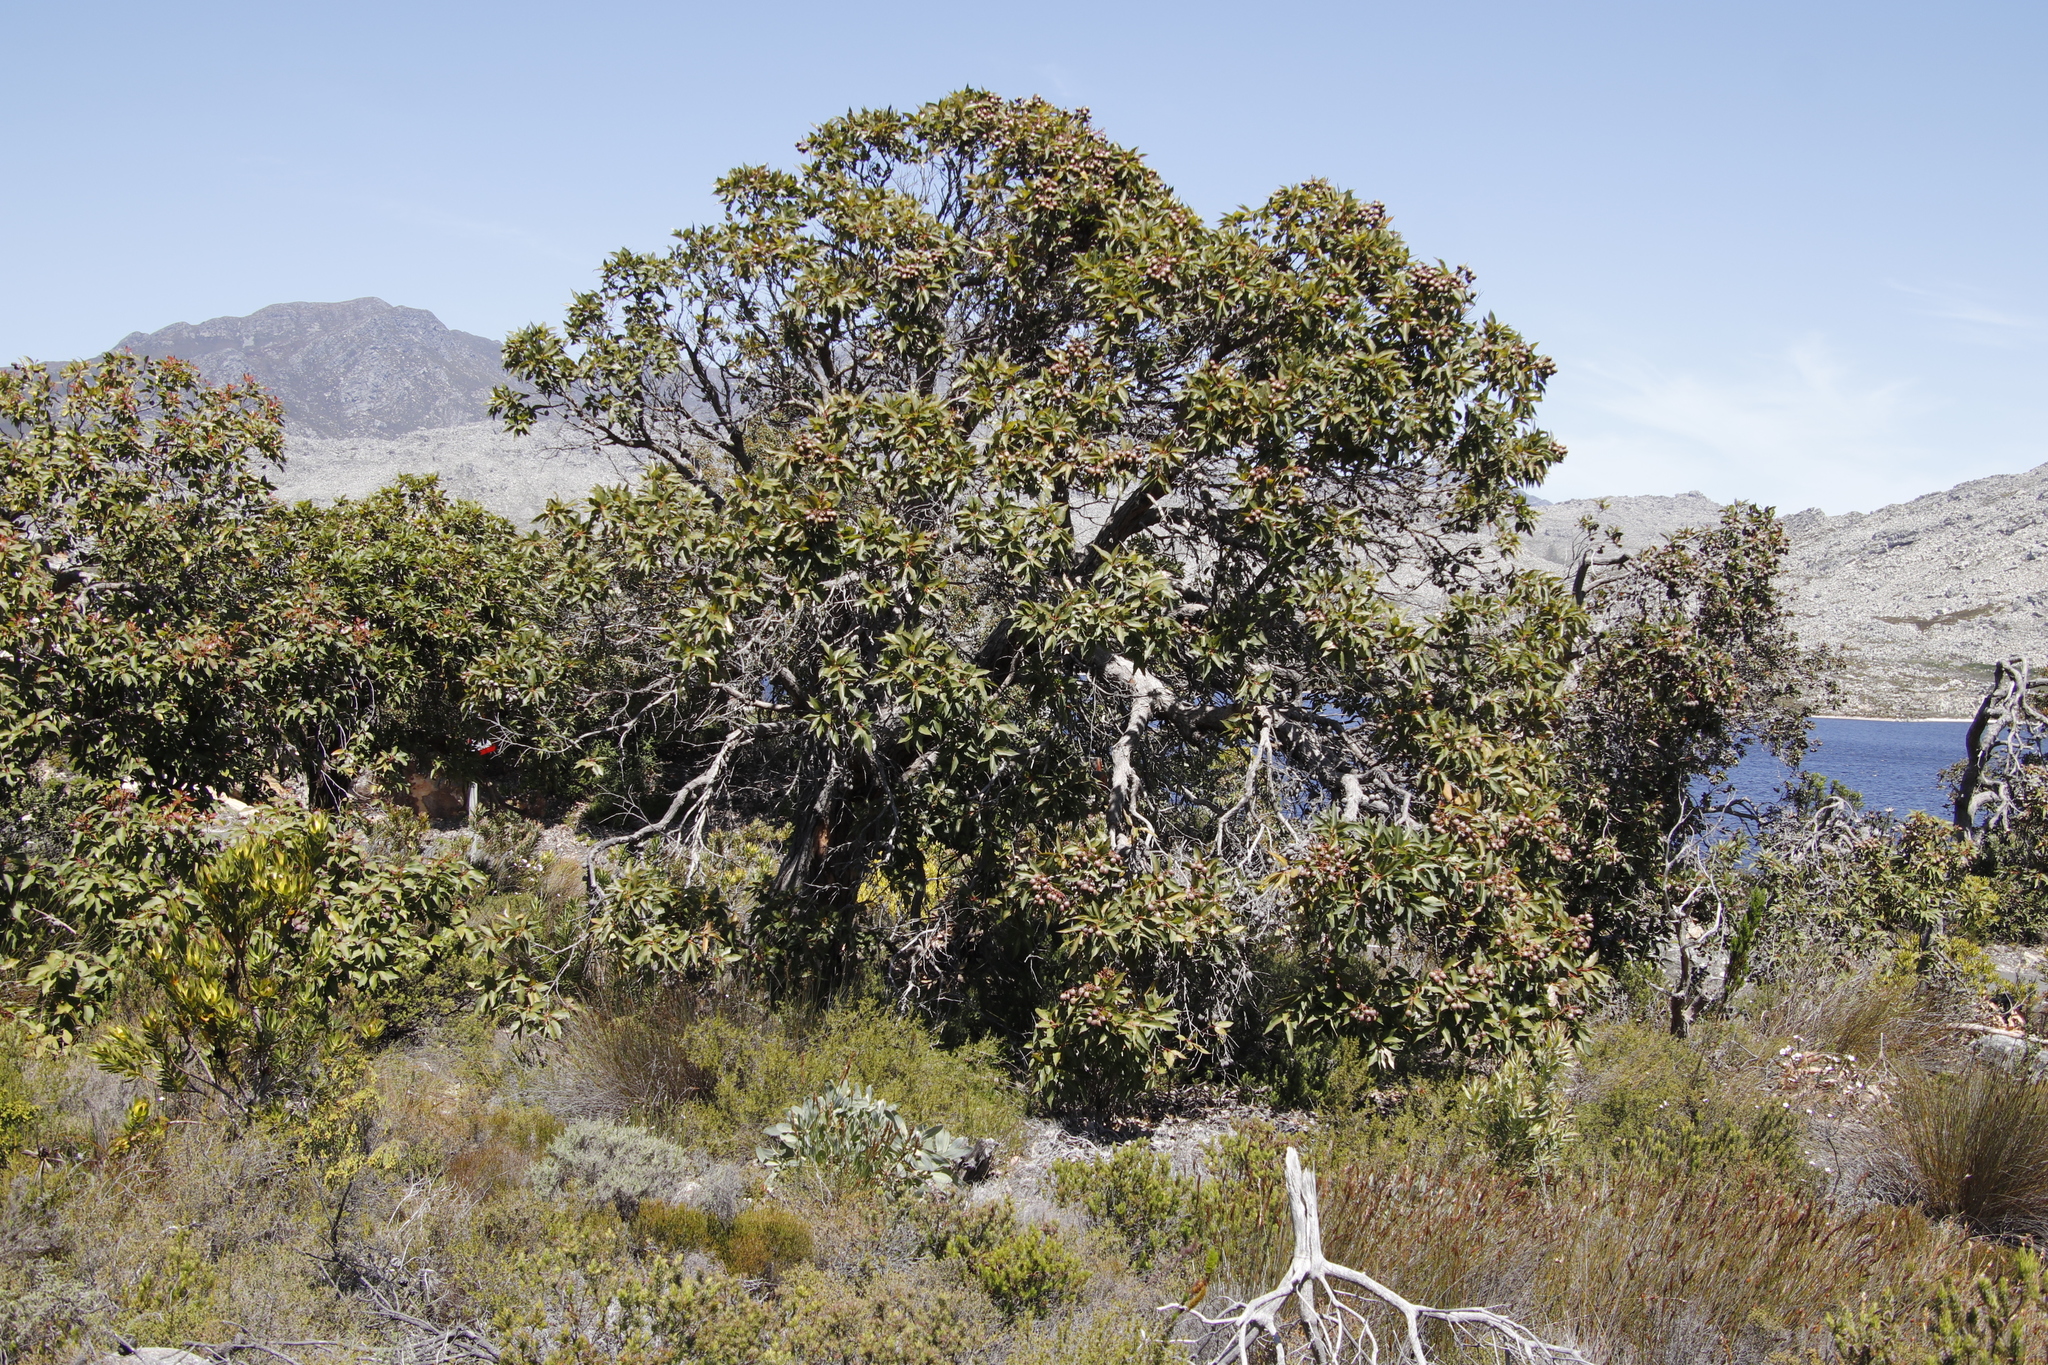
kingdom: Plantae
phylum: Tracheophyta
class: Magnoliopsida
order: Myrtales
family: Myrtaceae
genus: Corymbia
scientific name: Corymbia ficifolia
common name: Redflower gum
